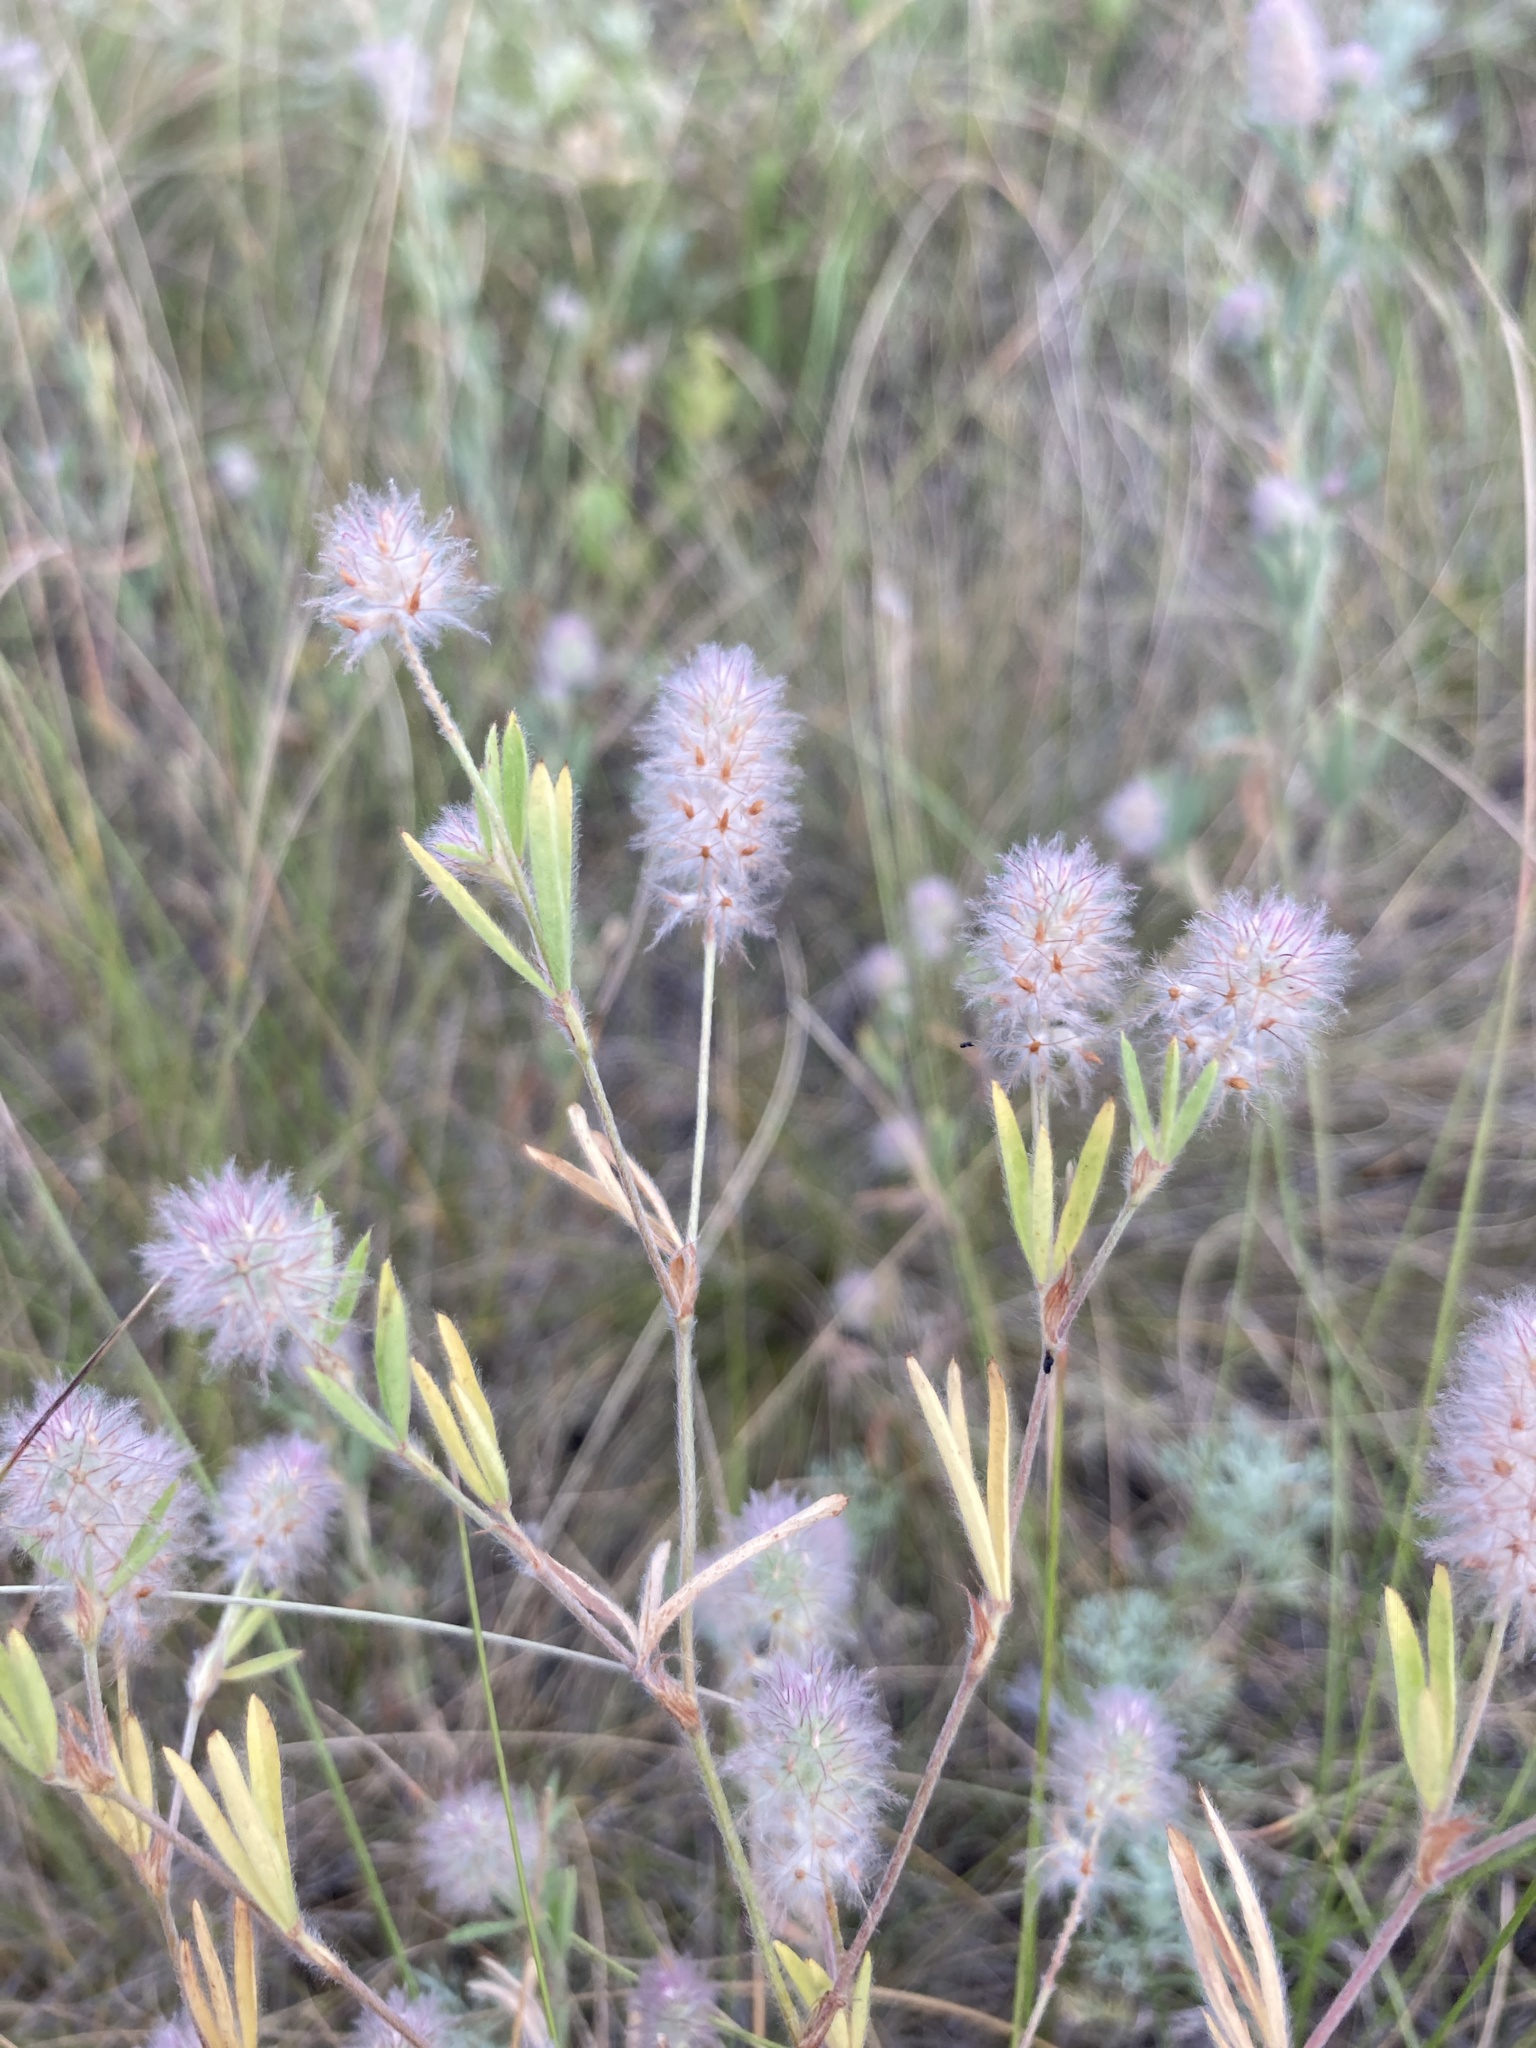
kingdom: Plantae
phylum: Tracheophyta
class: Magnoliopsida
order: Fabales
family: Fabaceae
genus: Trifolium
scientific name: Trifolium arvense
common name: Hare's-foot clover
